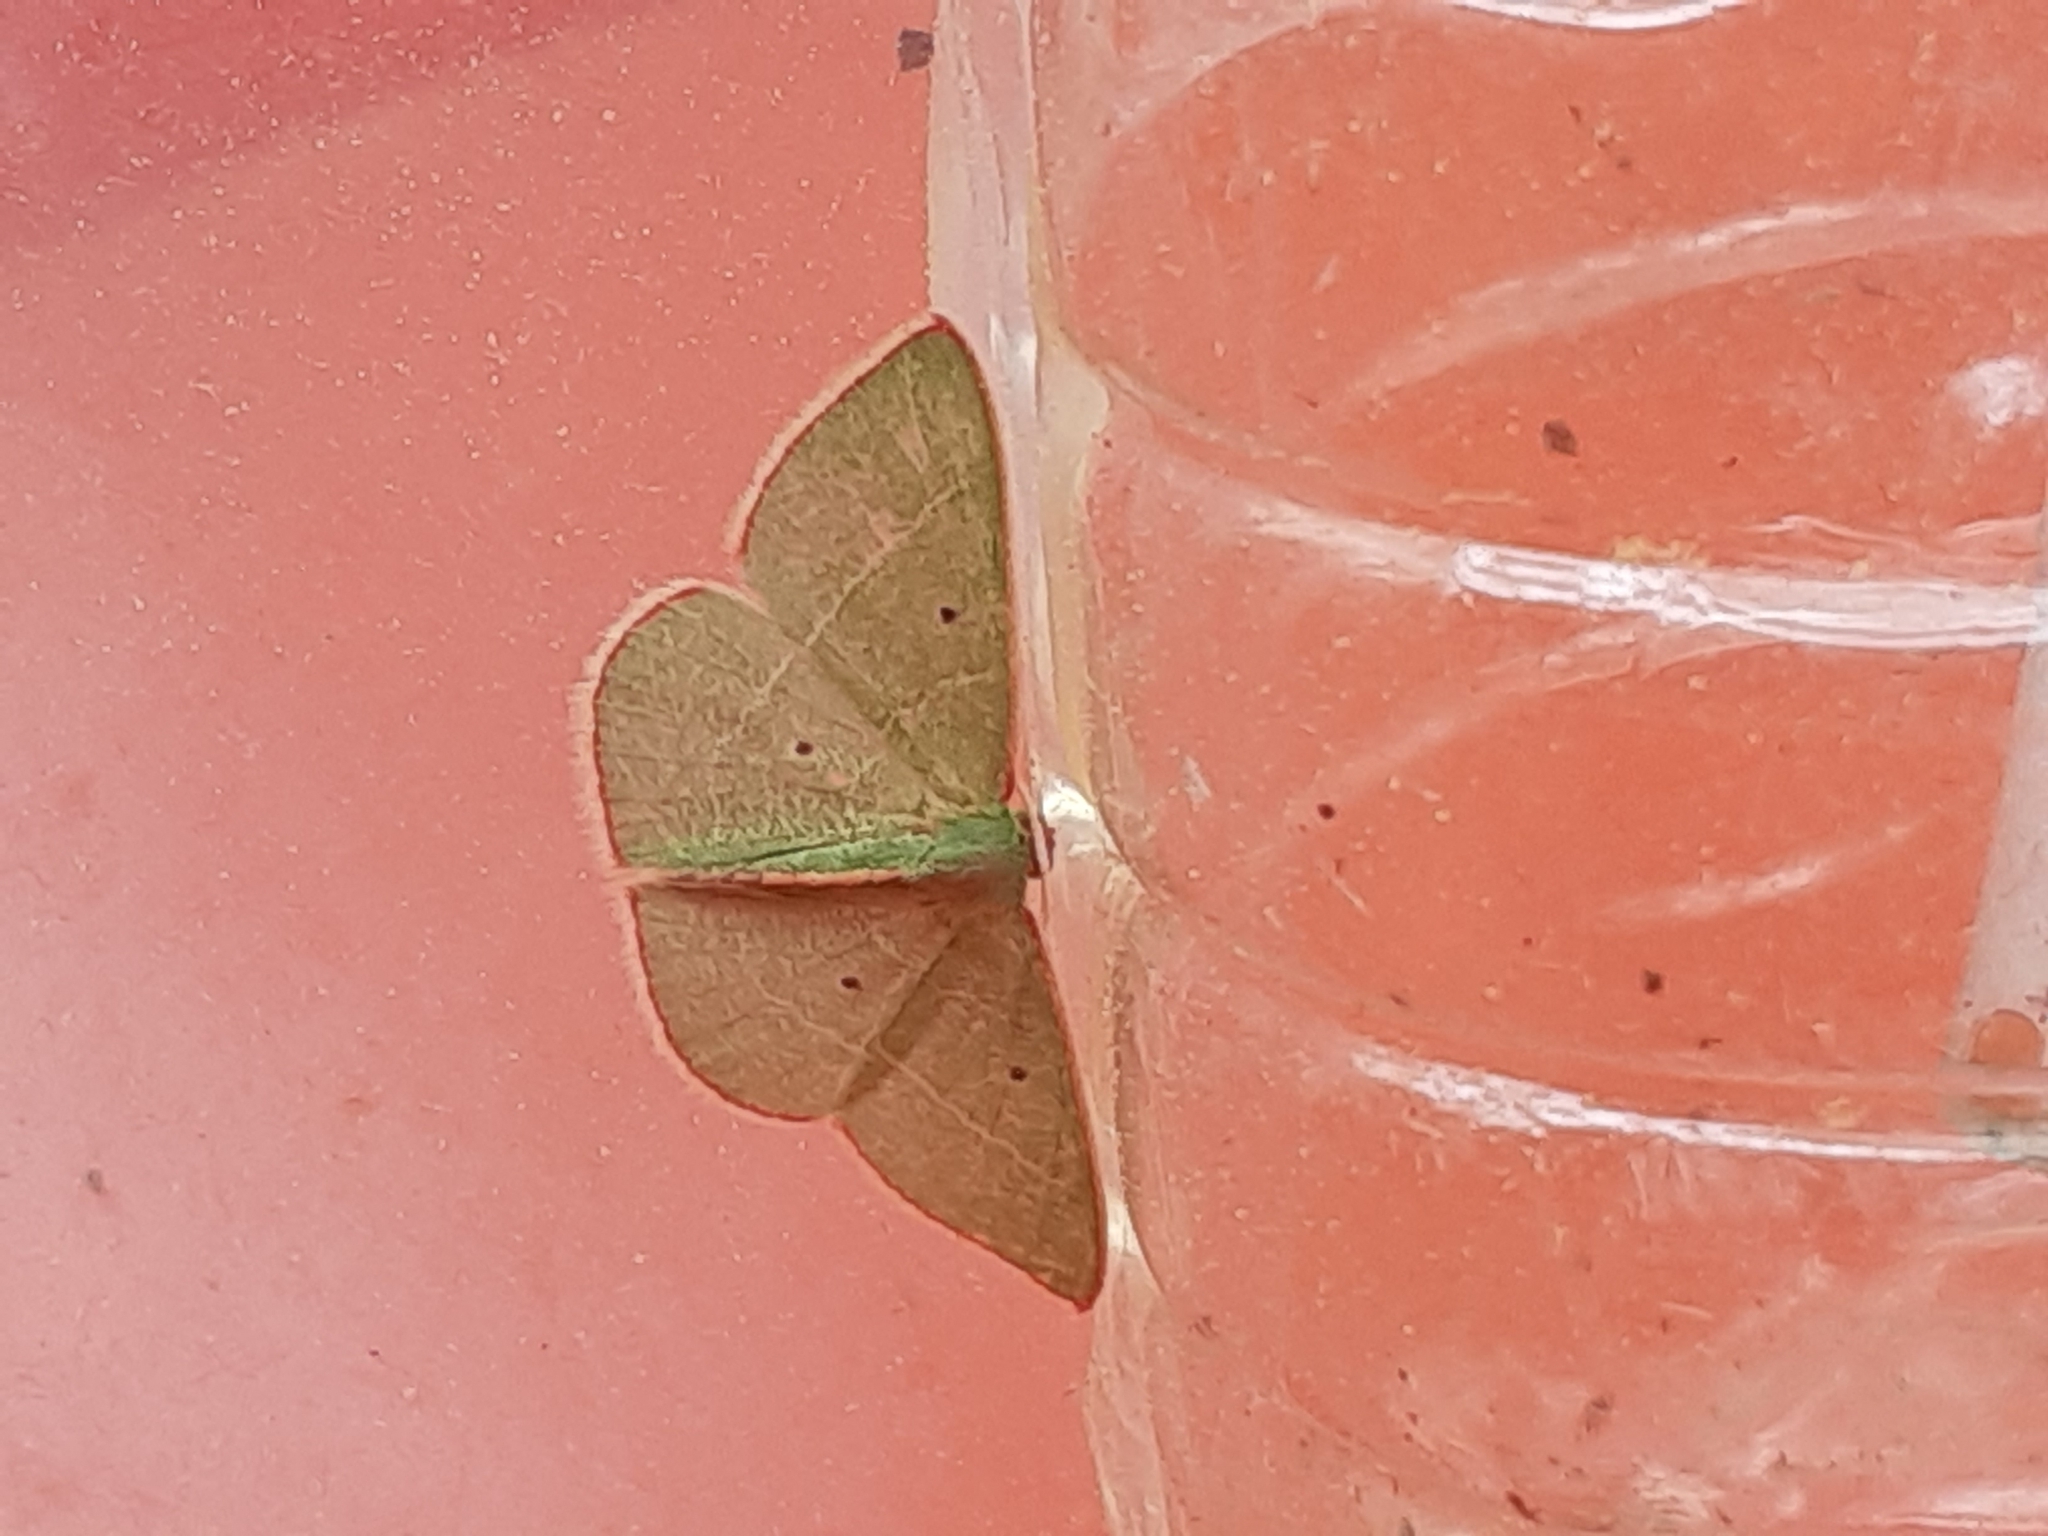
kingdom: Animalia
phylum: Arthropoda
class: Insecta
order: Lepidoptera
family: Geometridae
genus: Nemoria
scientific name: Nemoria bifilata
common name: White-barred emerald moth
